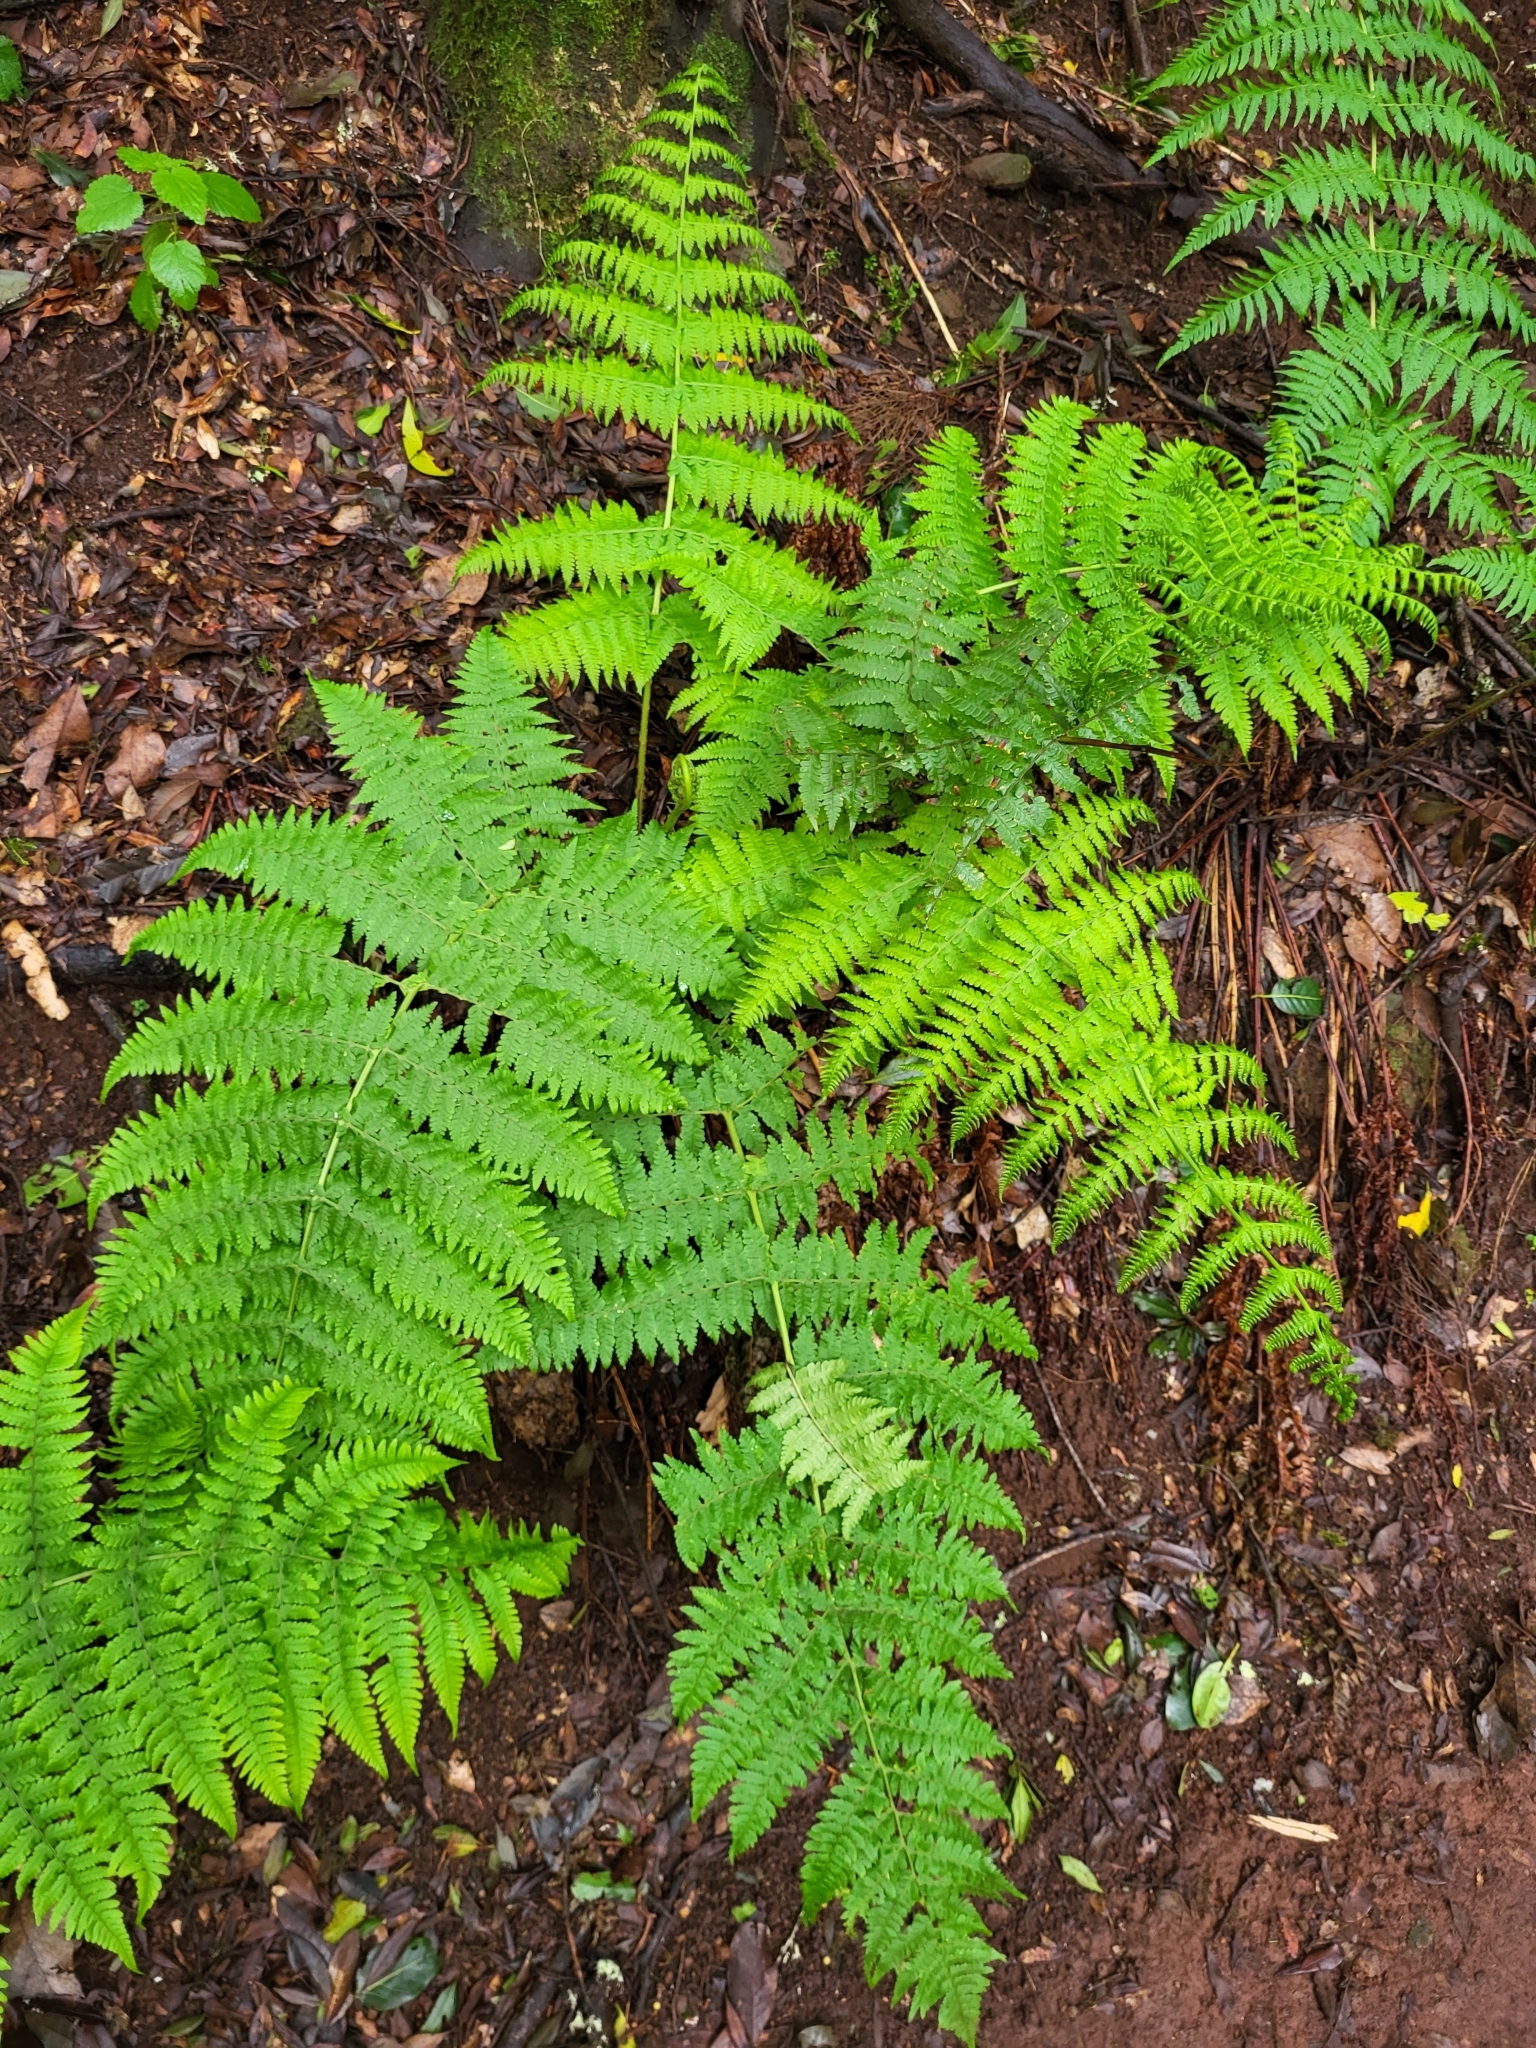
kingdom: Plantae
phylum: Tracheophyta
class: Polypodiopsida
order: Polypodiales
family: Dryopteridaceae
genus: Dryopteris
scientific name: Dryopteris oligodonta
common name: Canarian male-fern
